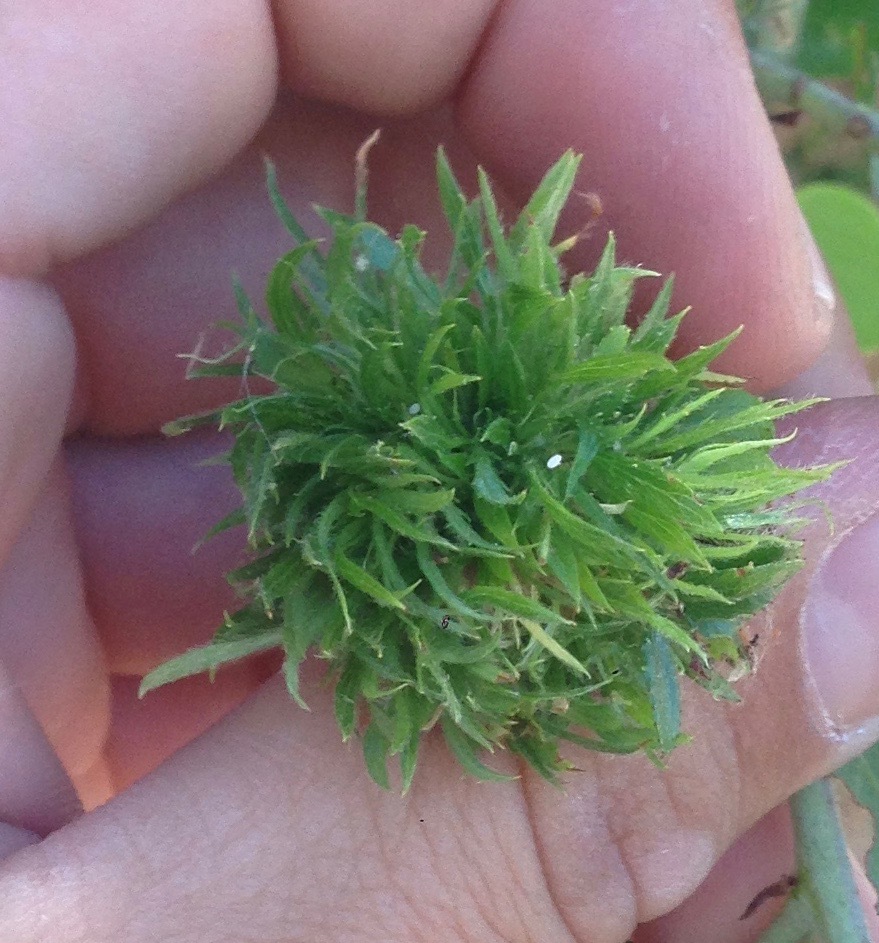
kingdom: Animalia
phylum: Arthropoda
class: Insecta
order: Diptera
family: Cecidomyiidae
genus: Asphondylia
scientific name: Asphondylia ceanothi
